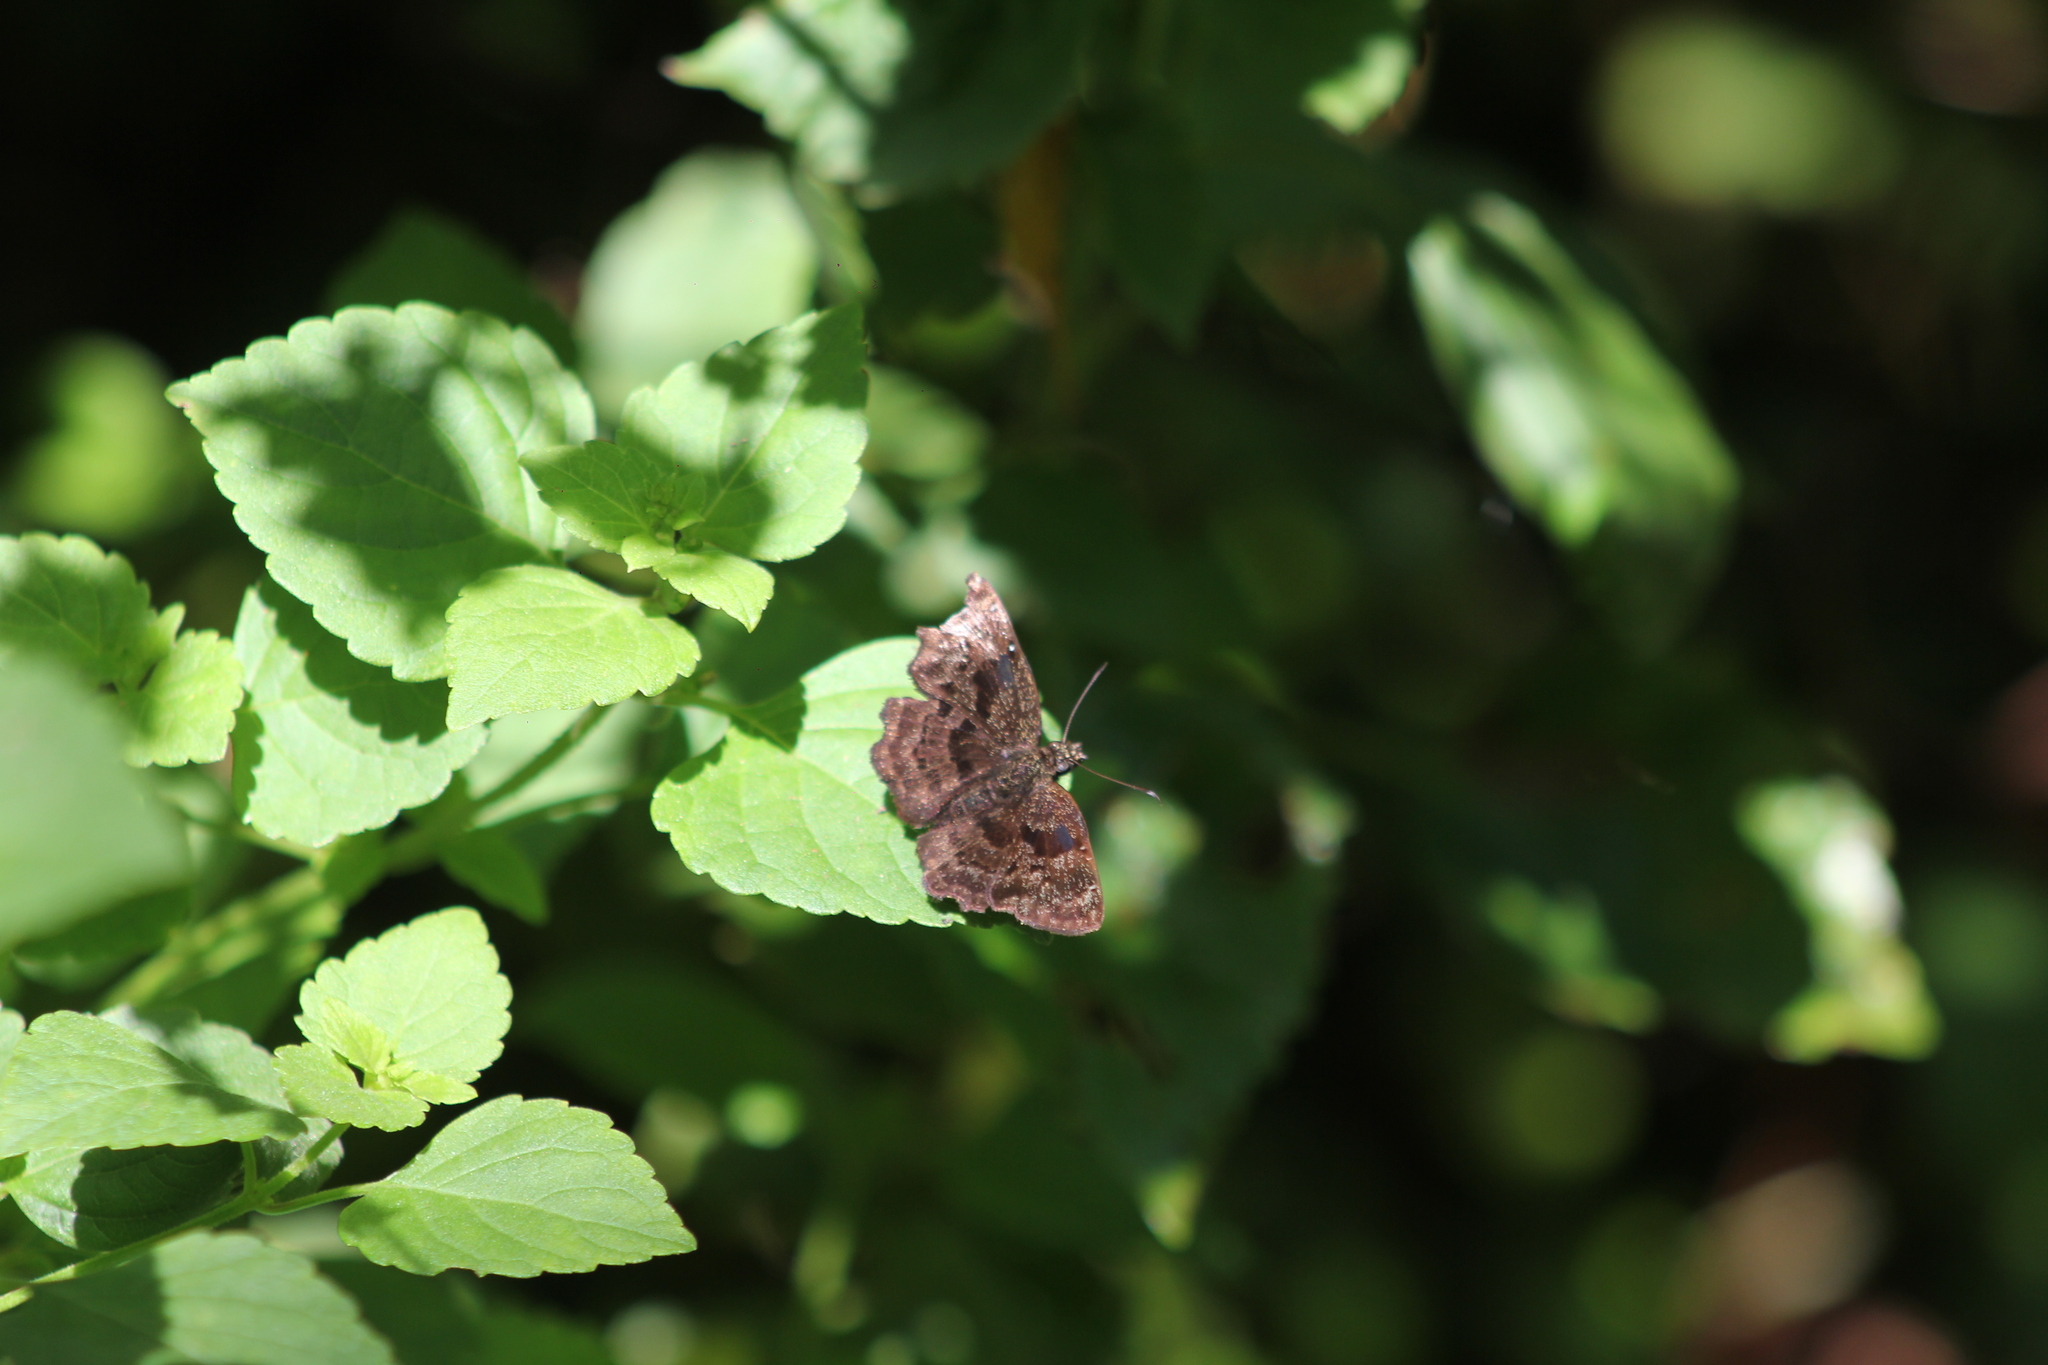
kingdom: Animalia
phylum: Arthropoda
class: Insecta
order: Lepidoptera
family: Hesperiidae
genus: Antigonus
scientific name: Antigonus liborius
